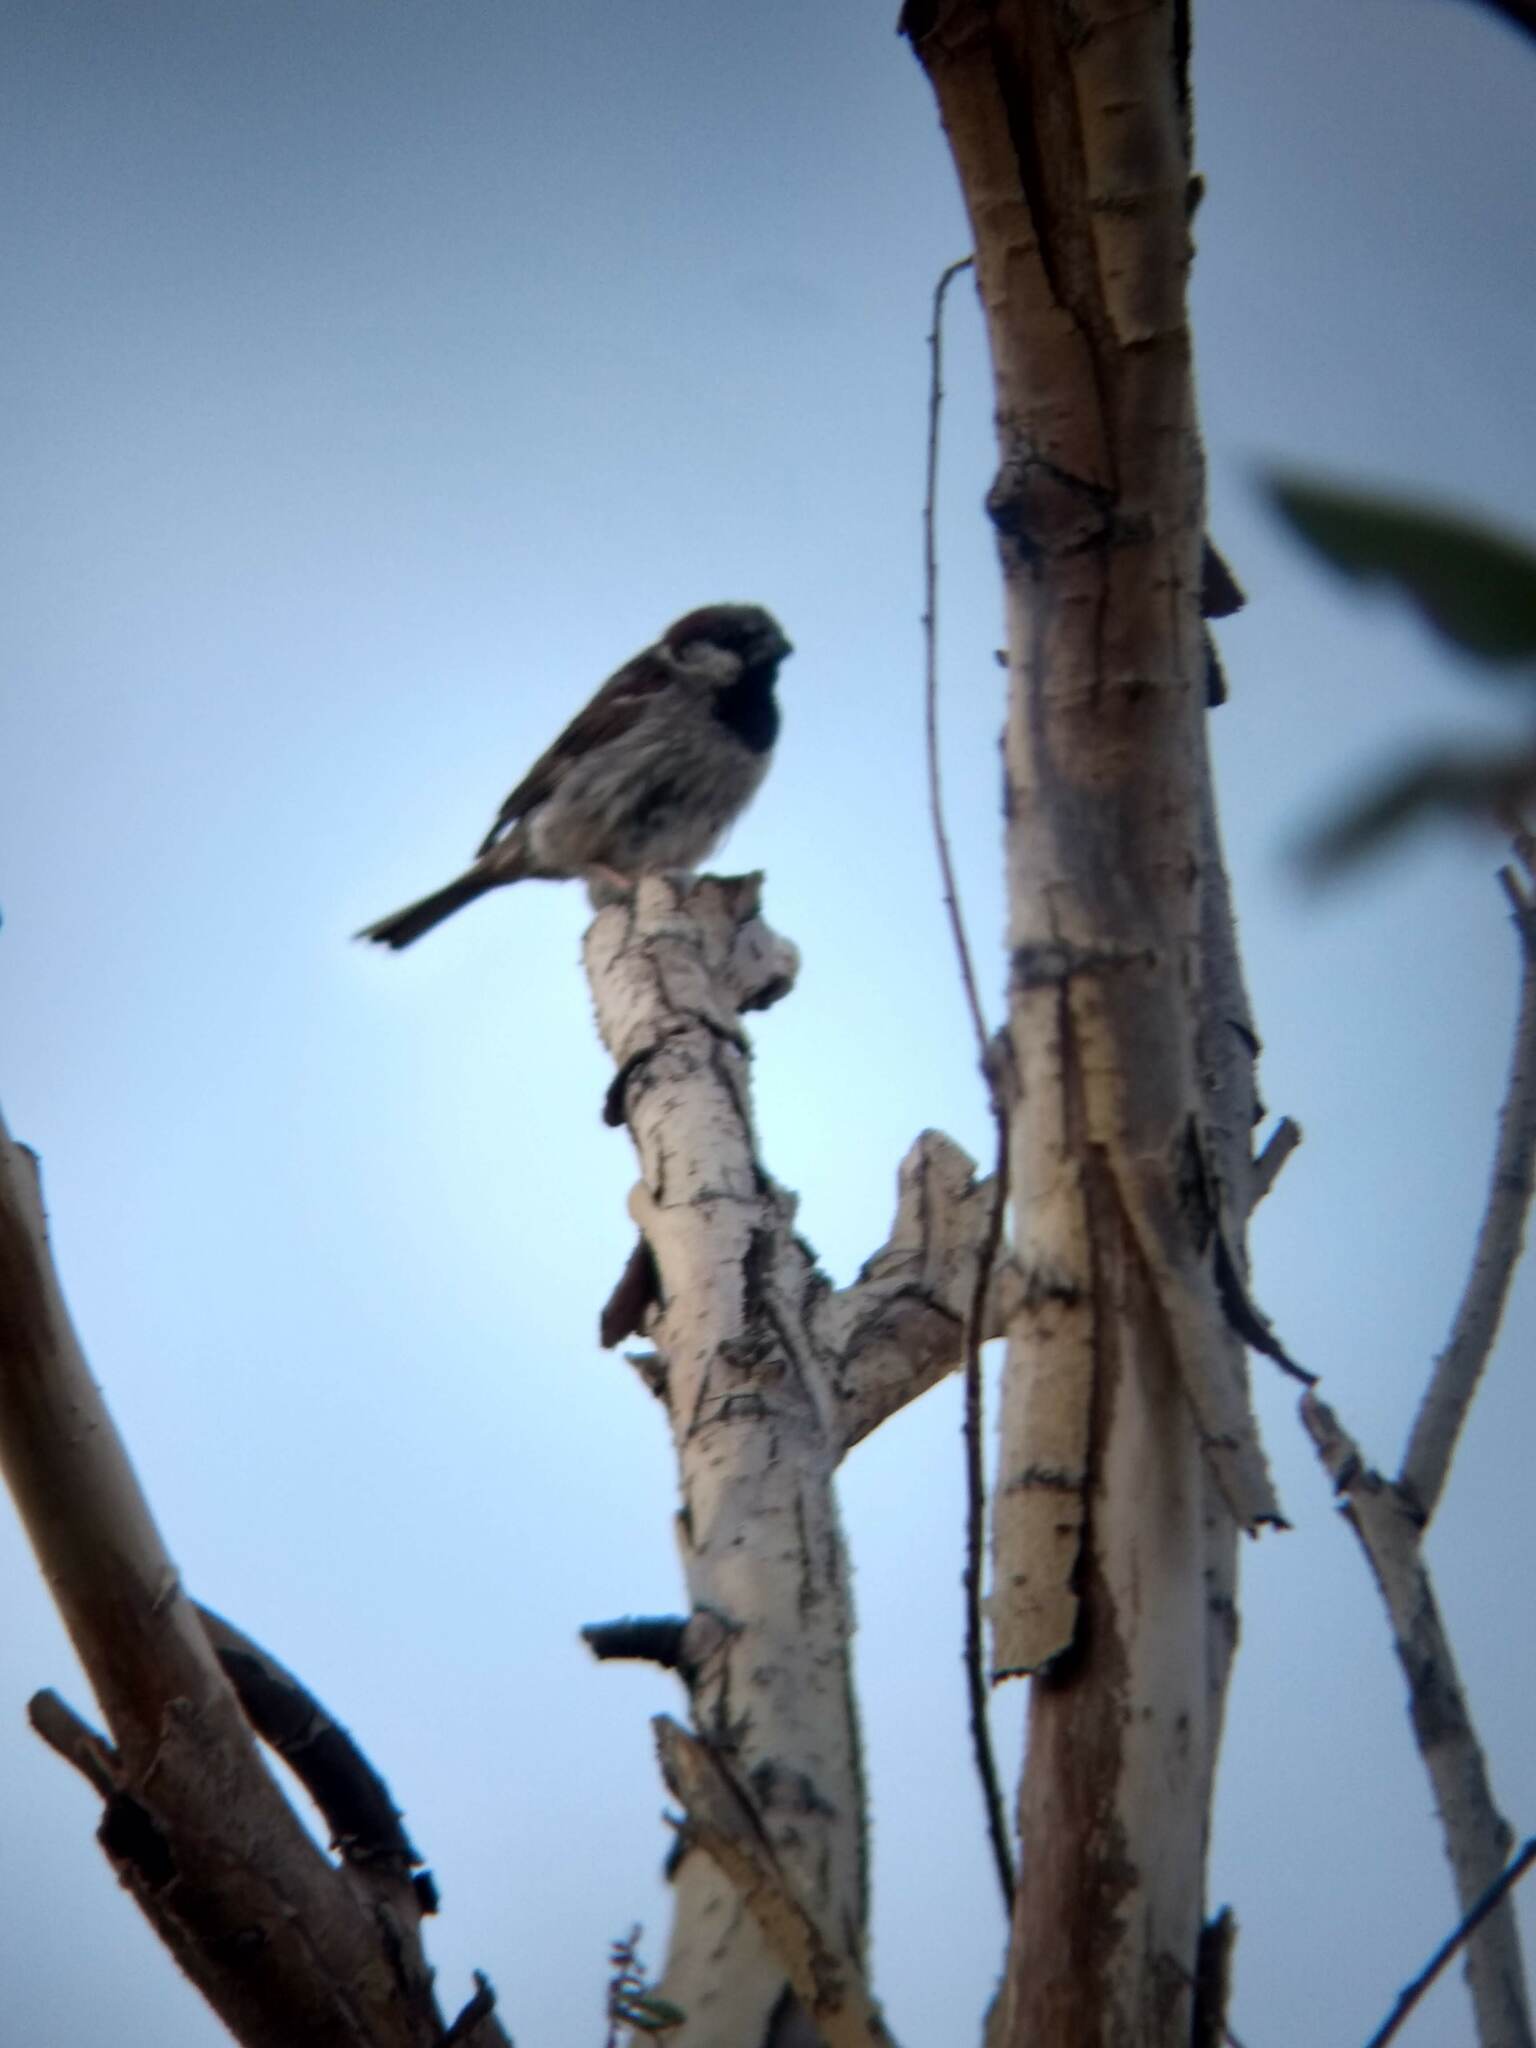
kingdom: Animalia
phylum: Chordata
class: Aves
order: Passeriformes
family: Passeridae
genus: Passer
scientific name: Passer domesticus
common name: House sparrow
